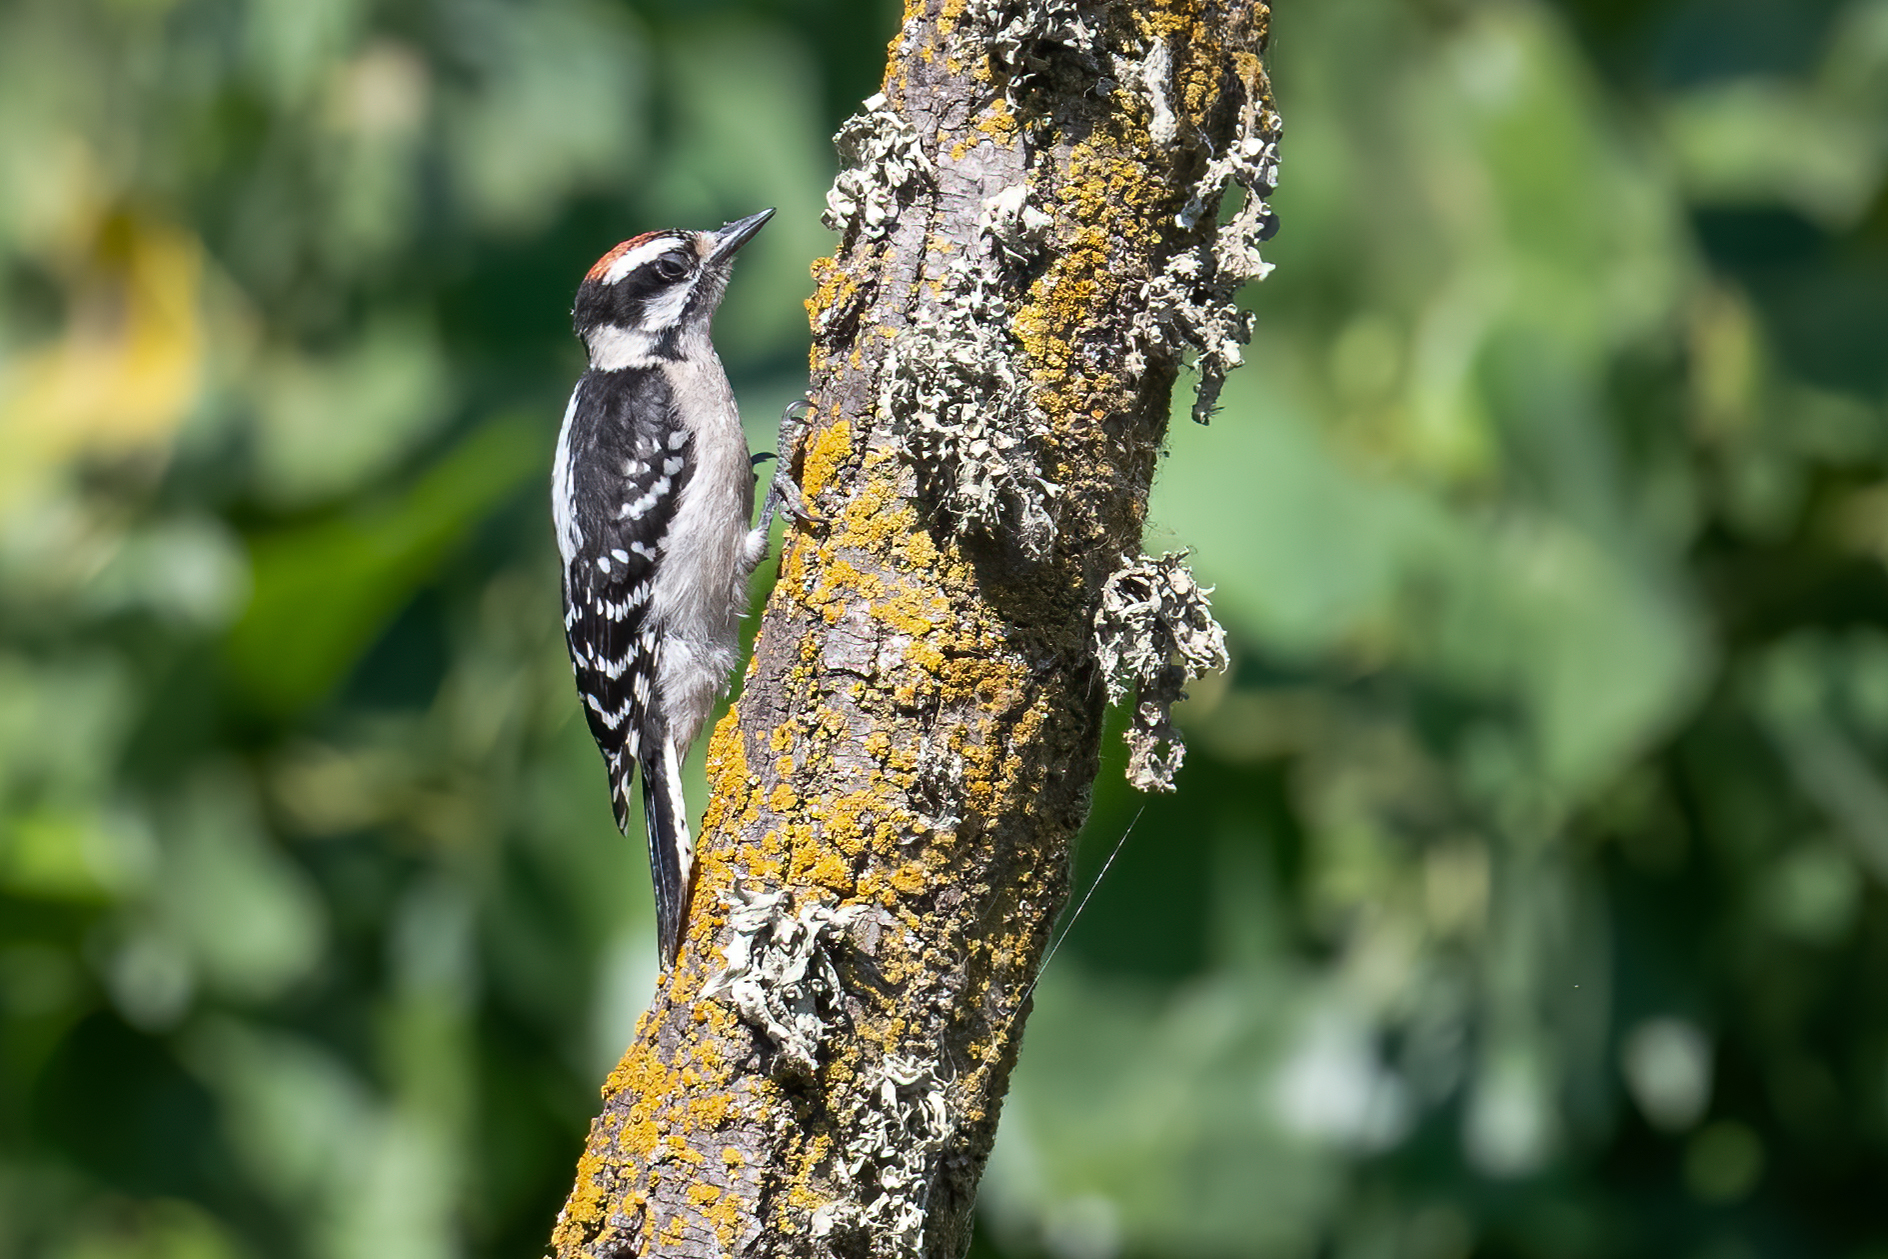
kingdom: Animalia
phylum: Chordata
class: Aves
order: Piciformes
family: Picidae
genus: Dryobates
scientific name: Dryobates pubescens
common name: Downy woodpecker
